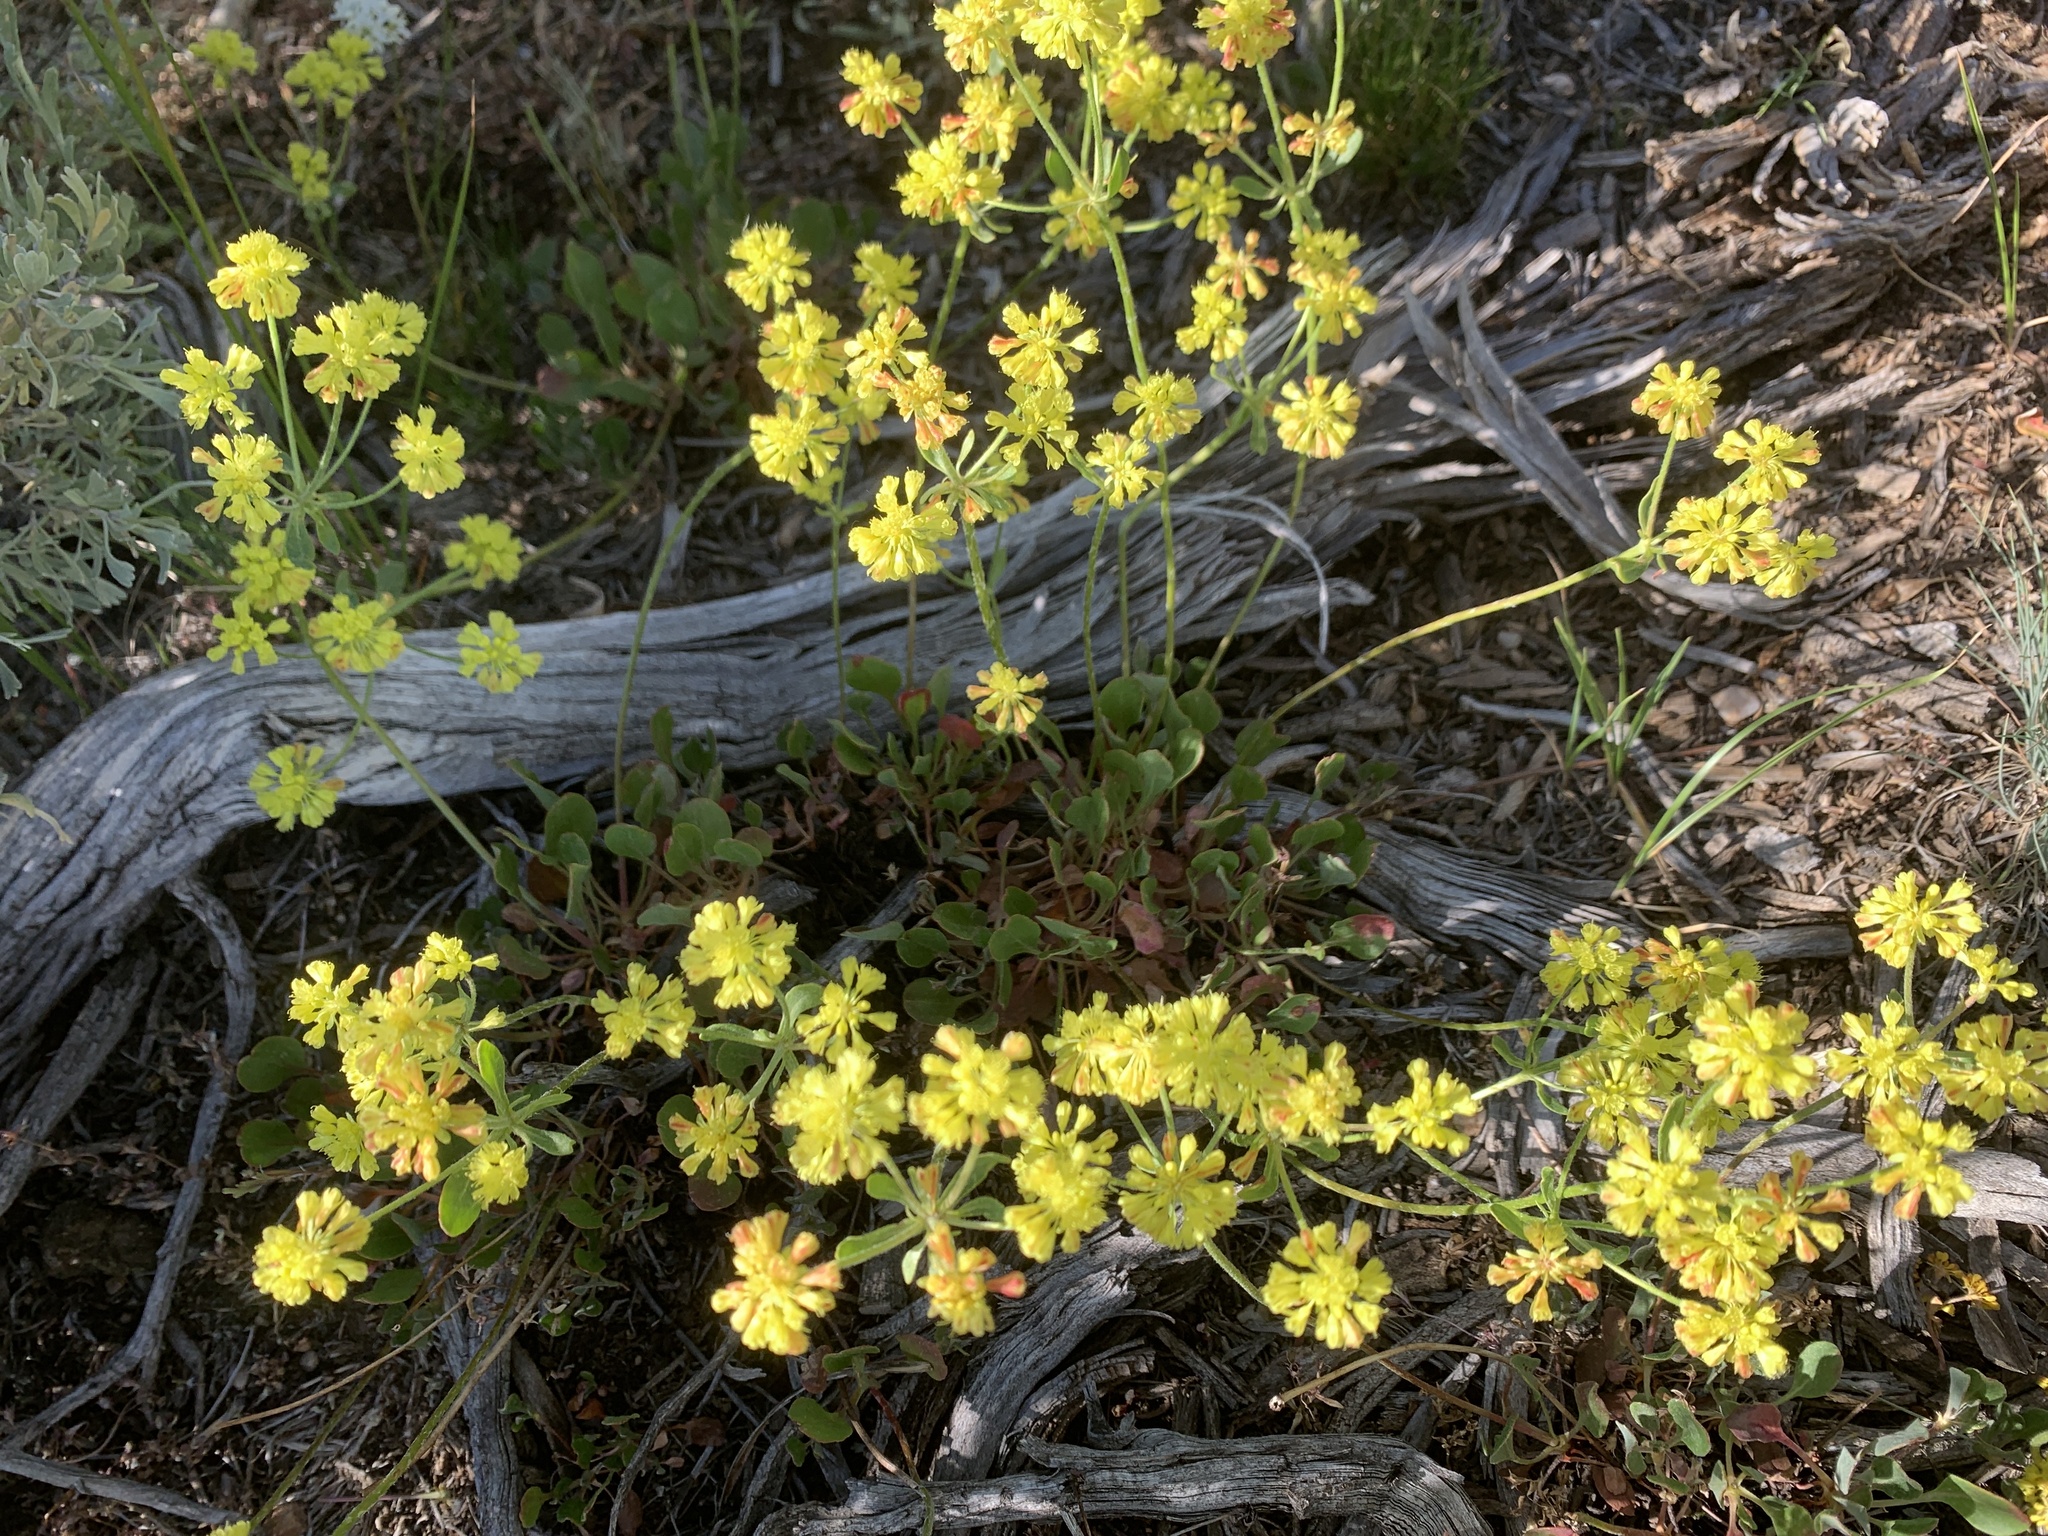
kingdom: Plantae
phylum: Tracheophyta
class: Magnoliopsida
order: Caryophyllales
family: Polygonaceae
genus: Eriogonum
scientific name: Eriogonum umbellatum
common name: Sulfur-buckwheat
